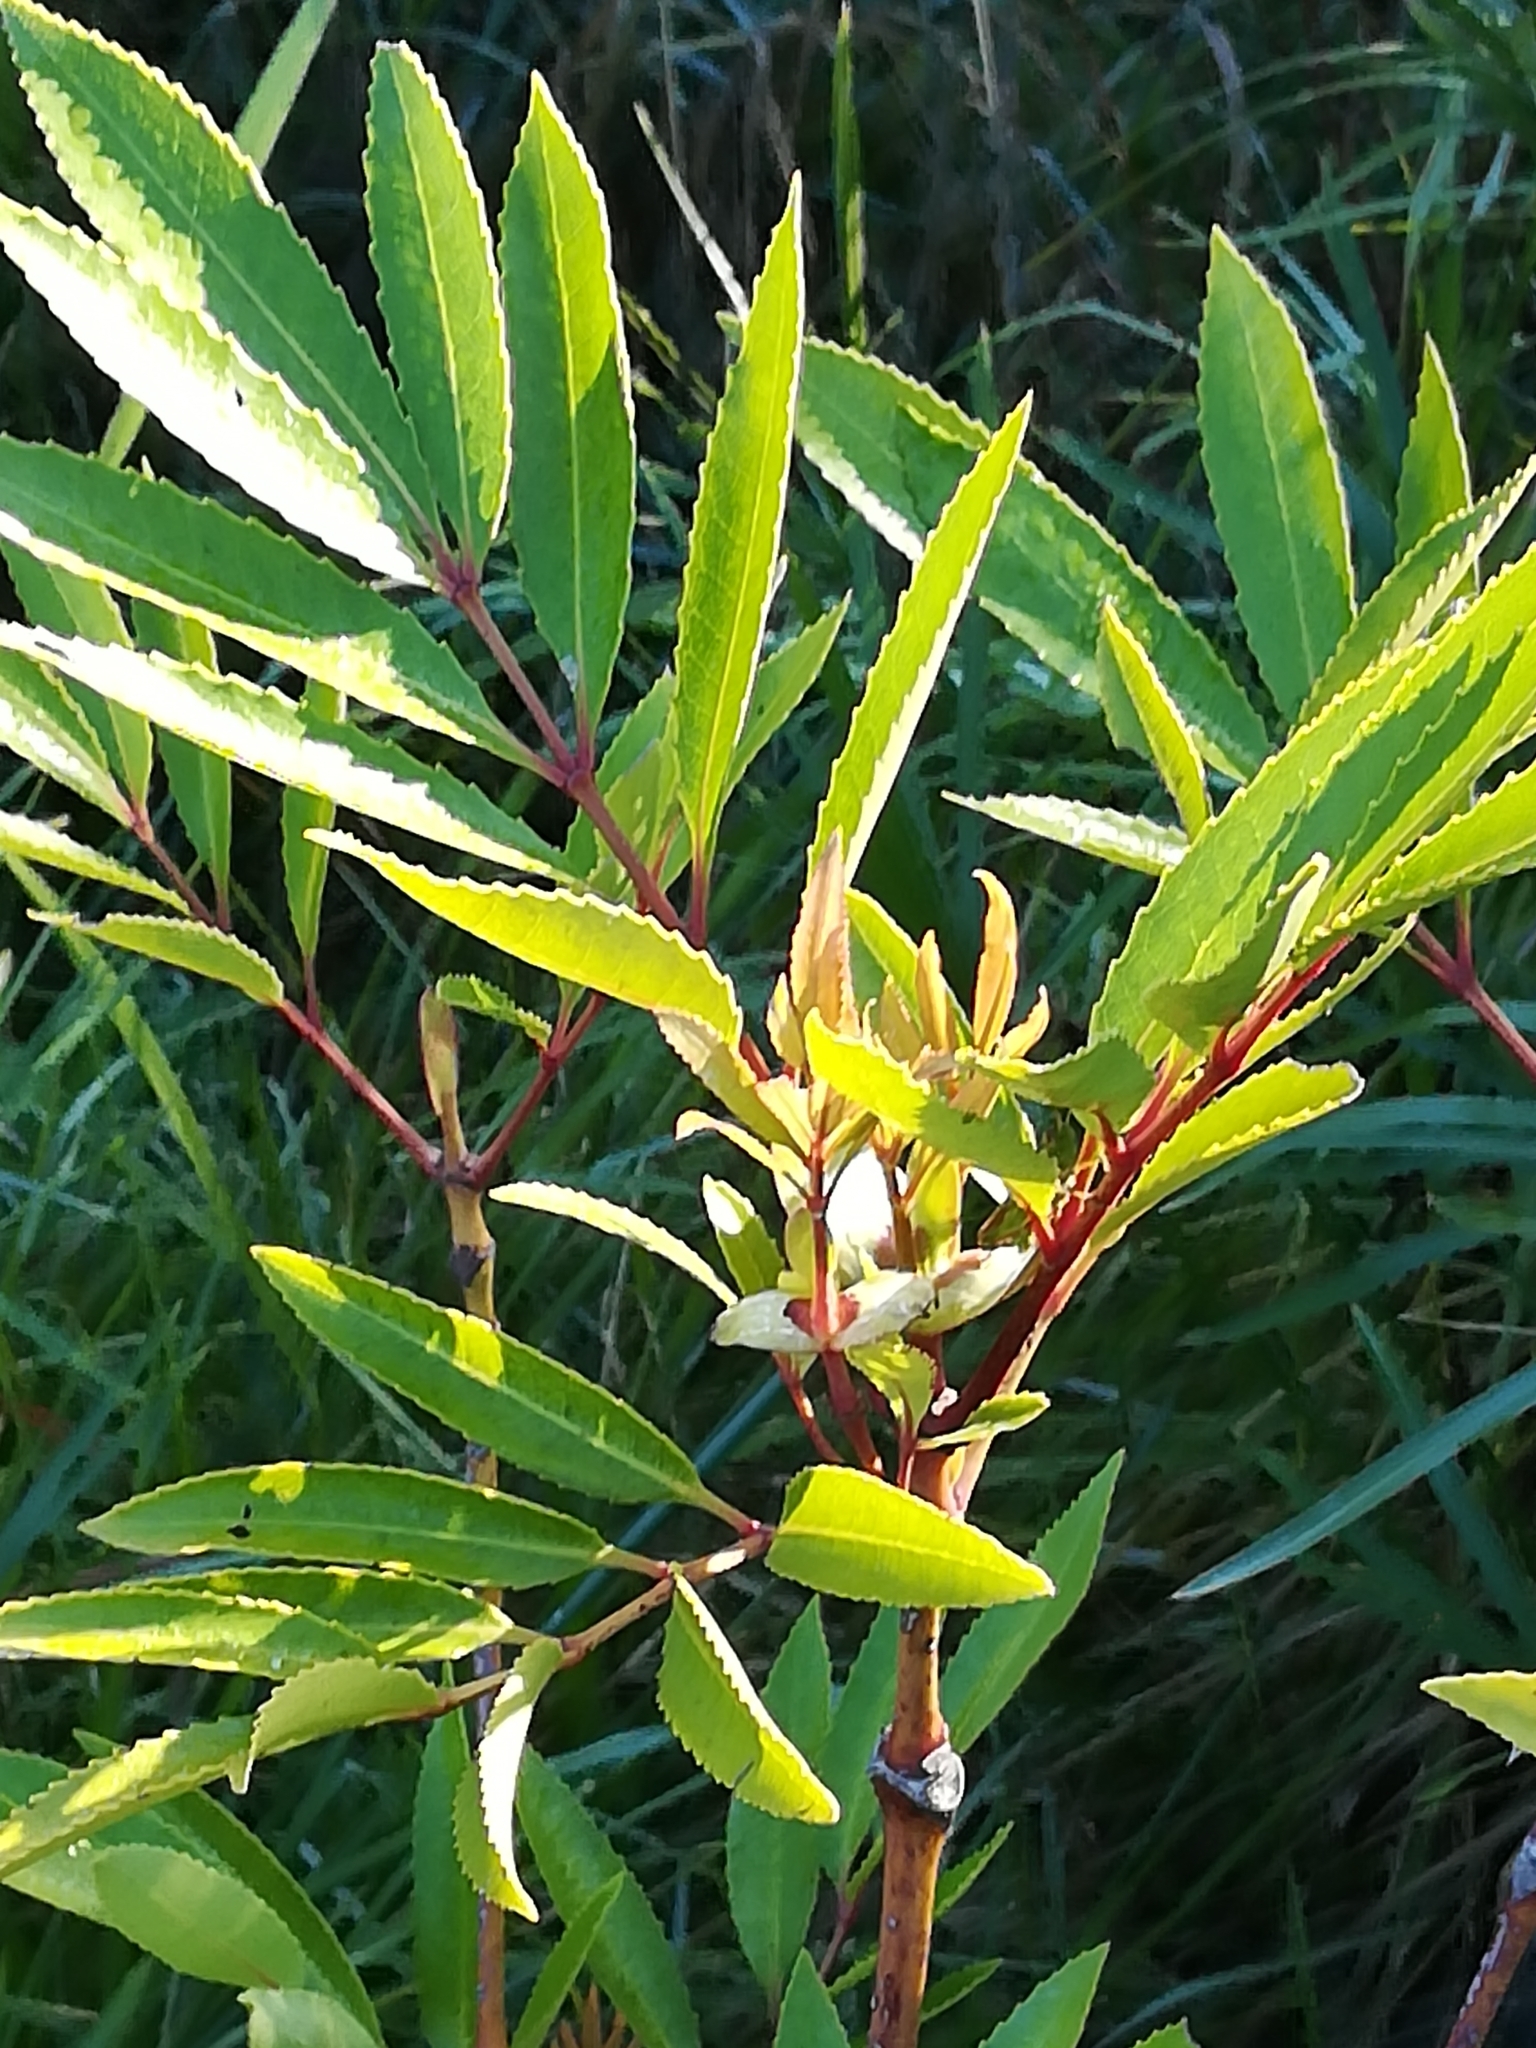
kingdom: Plantae
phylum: Tracheophyta
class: Magnoliopsida
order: Oxalidales
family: Cunoniaceae
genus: Cunonia
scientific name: Cunonia capensis
